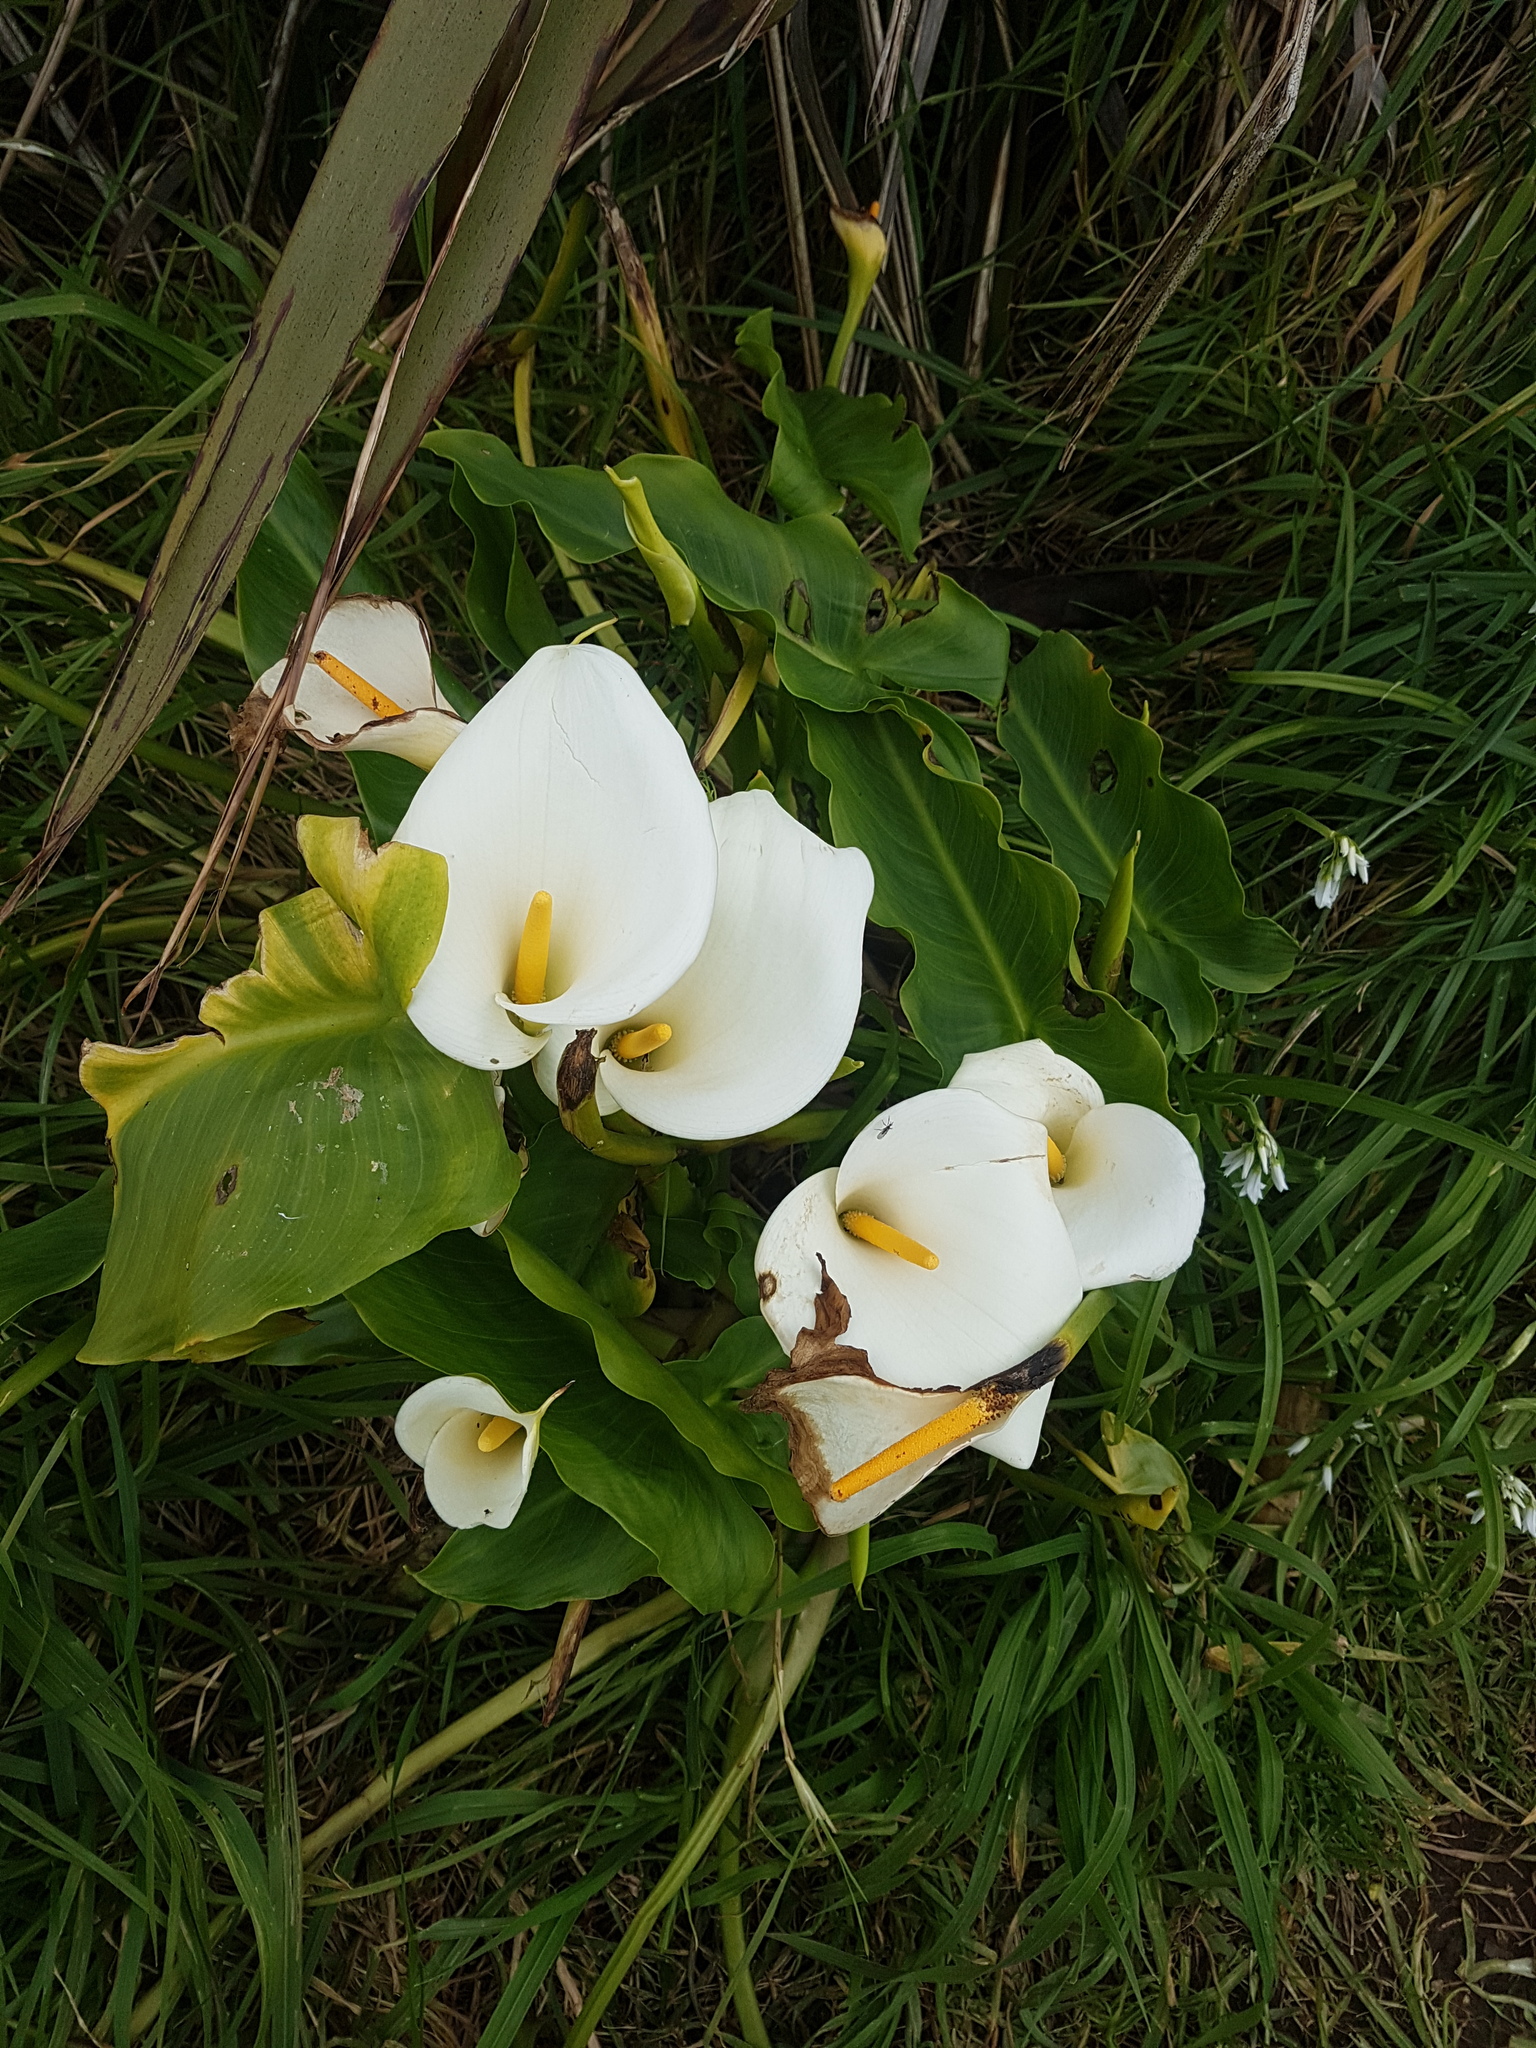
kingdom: Plantae
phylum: Tracheophyta
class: Liliopsida
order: Alismatales
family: Araceae
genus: Zantedeschia
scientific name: Zantedeschia aethiopica
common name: Altar-lily
